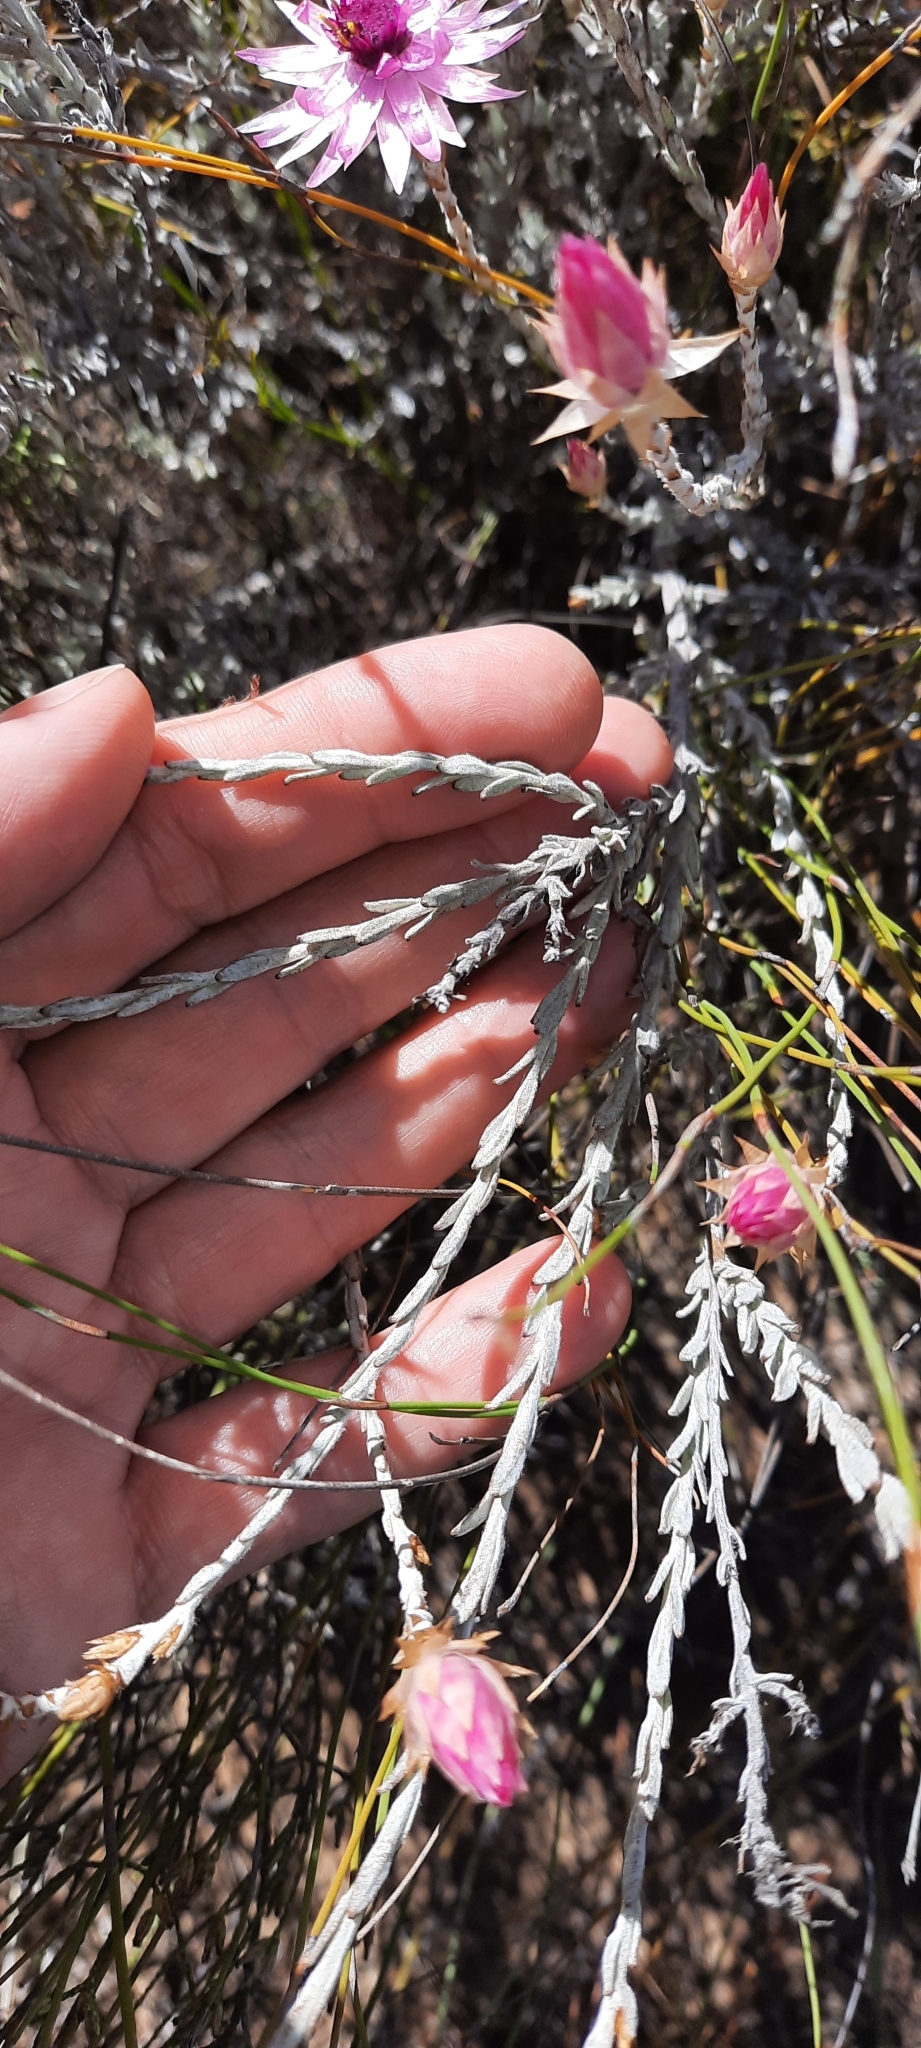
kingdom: Plantae
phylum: Tracheophyta
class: Magnoliopsida
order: Asterales
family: Asteraceae
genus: Syncarpha
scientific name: Syncarpha canescens
